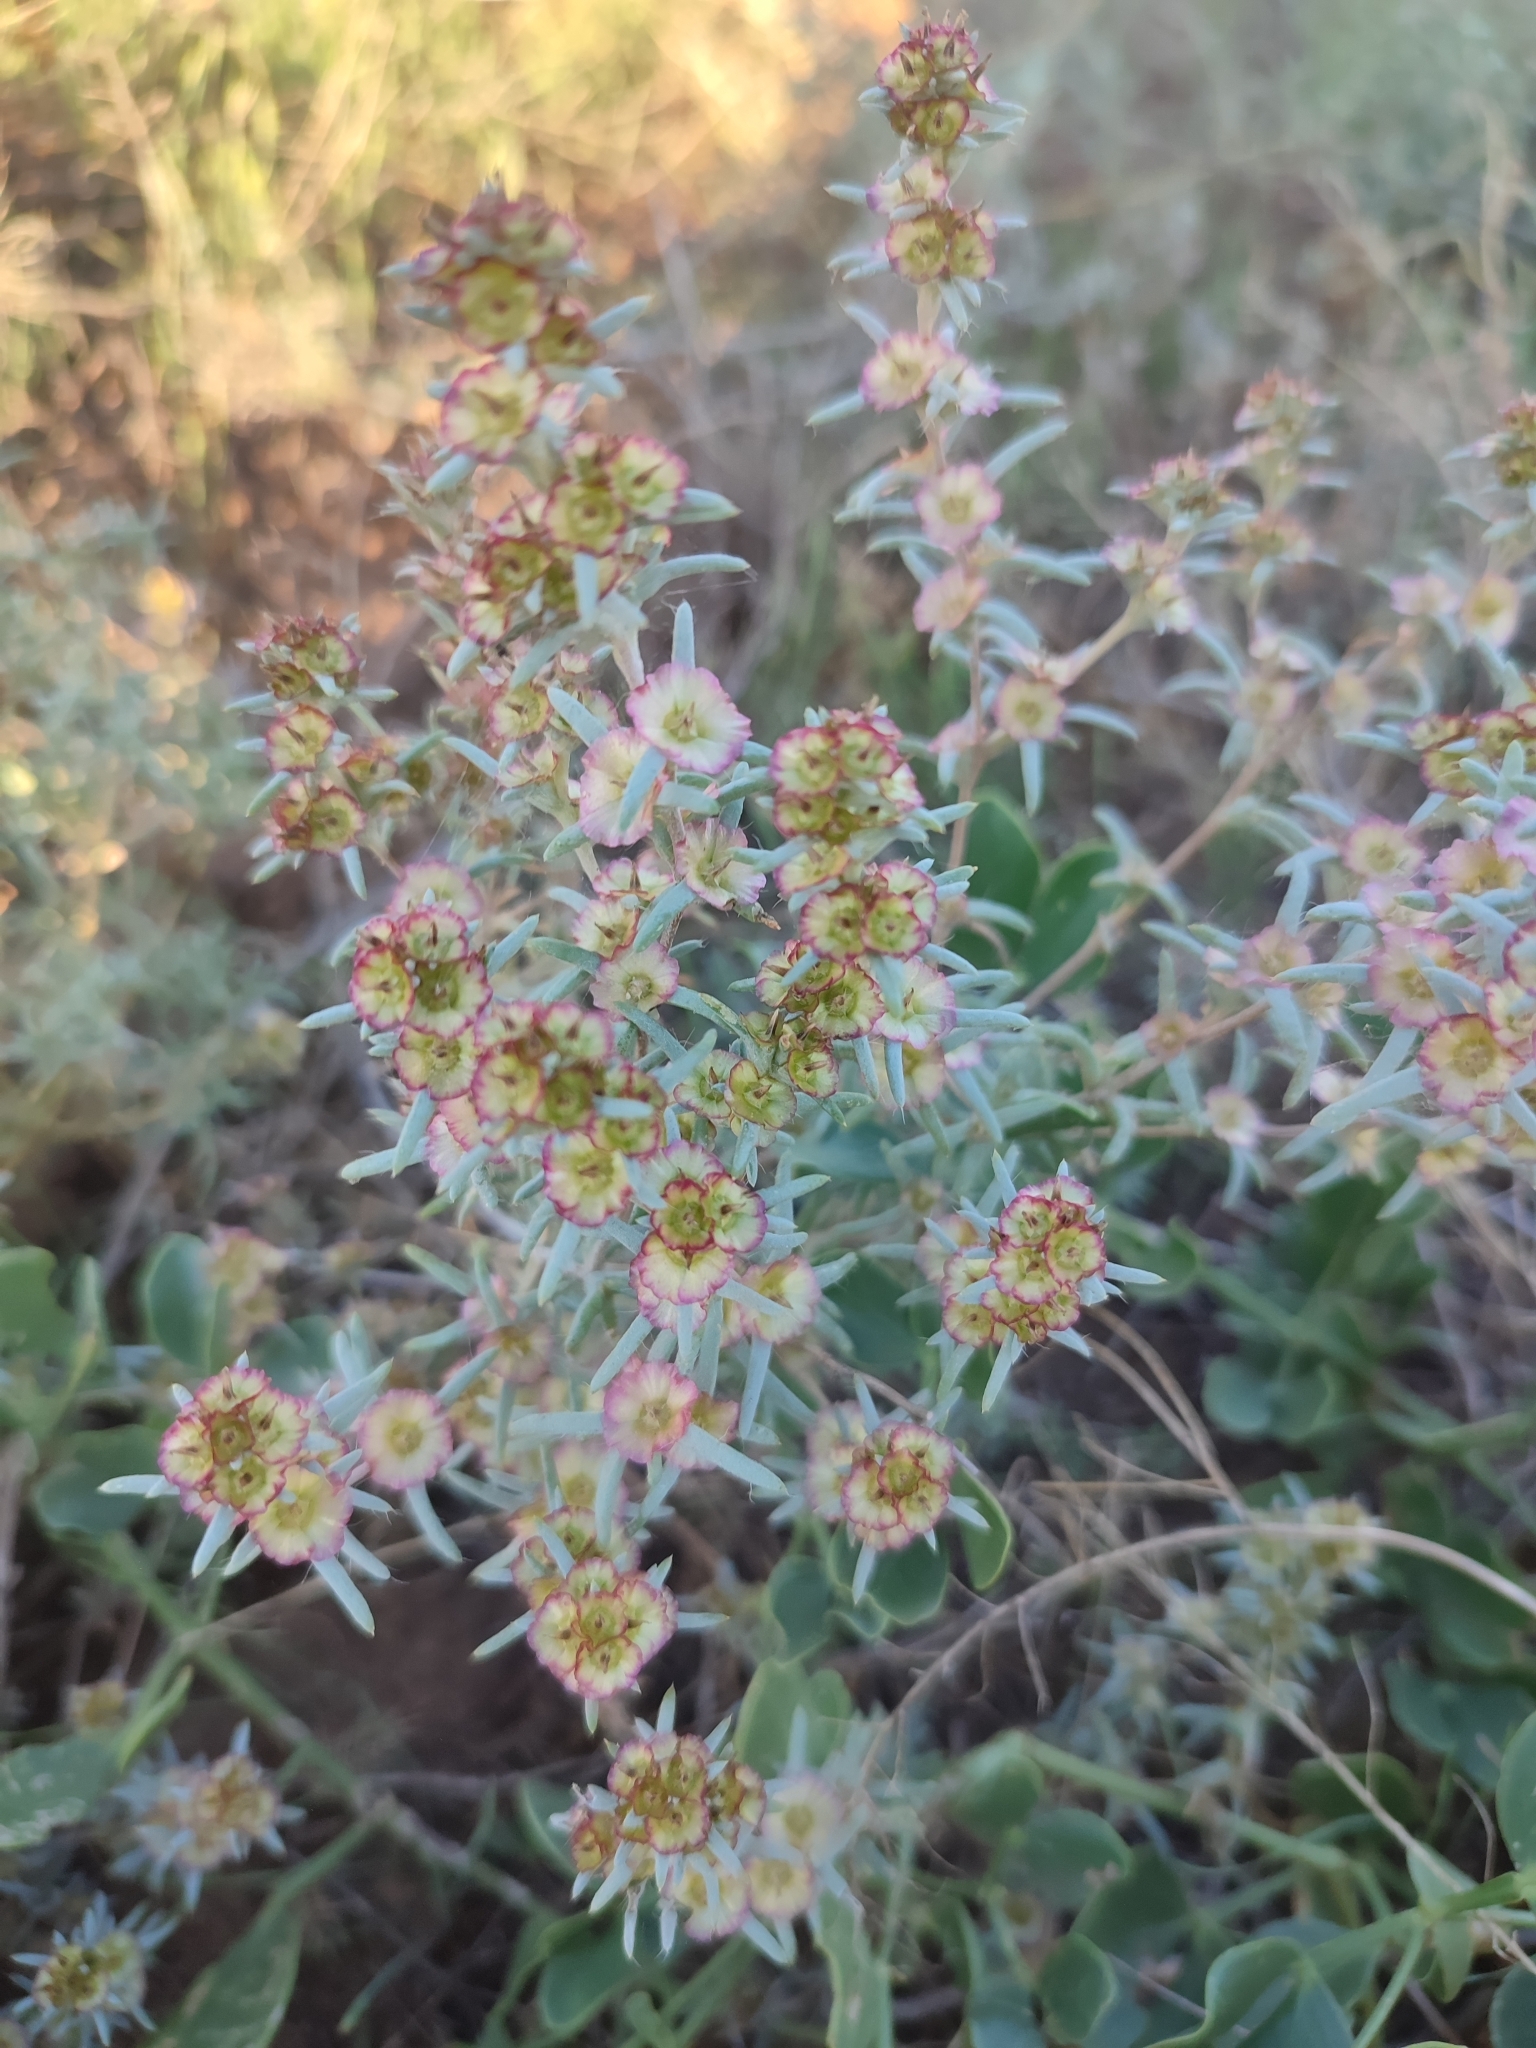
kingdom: Plantae
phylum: Tracheophyta
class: Magnoliopsida
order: Caryophyllales
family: Amaranthaceae
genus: Pyankovia
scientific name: Pyankovia brachiata
